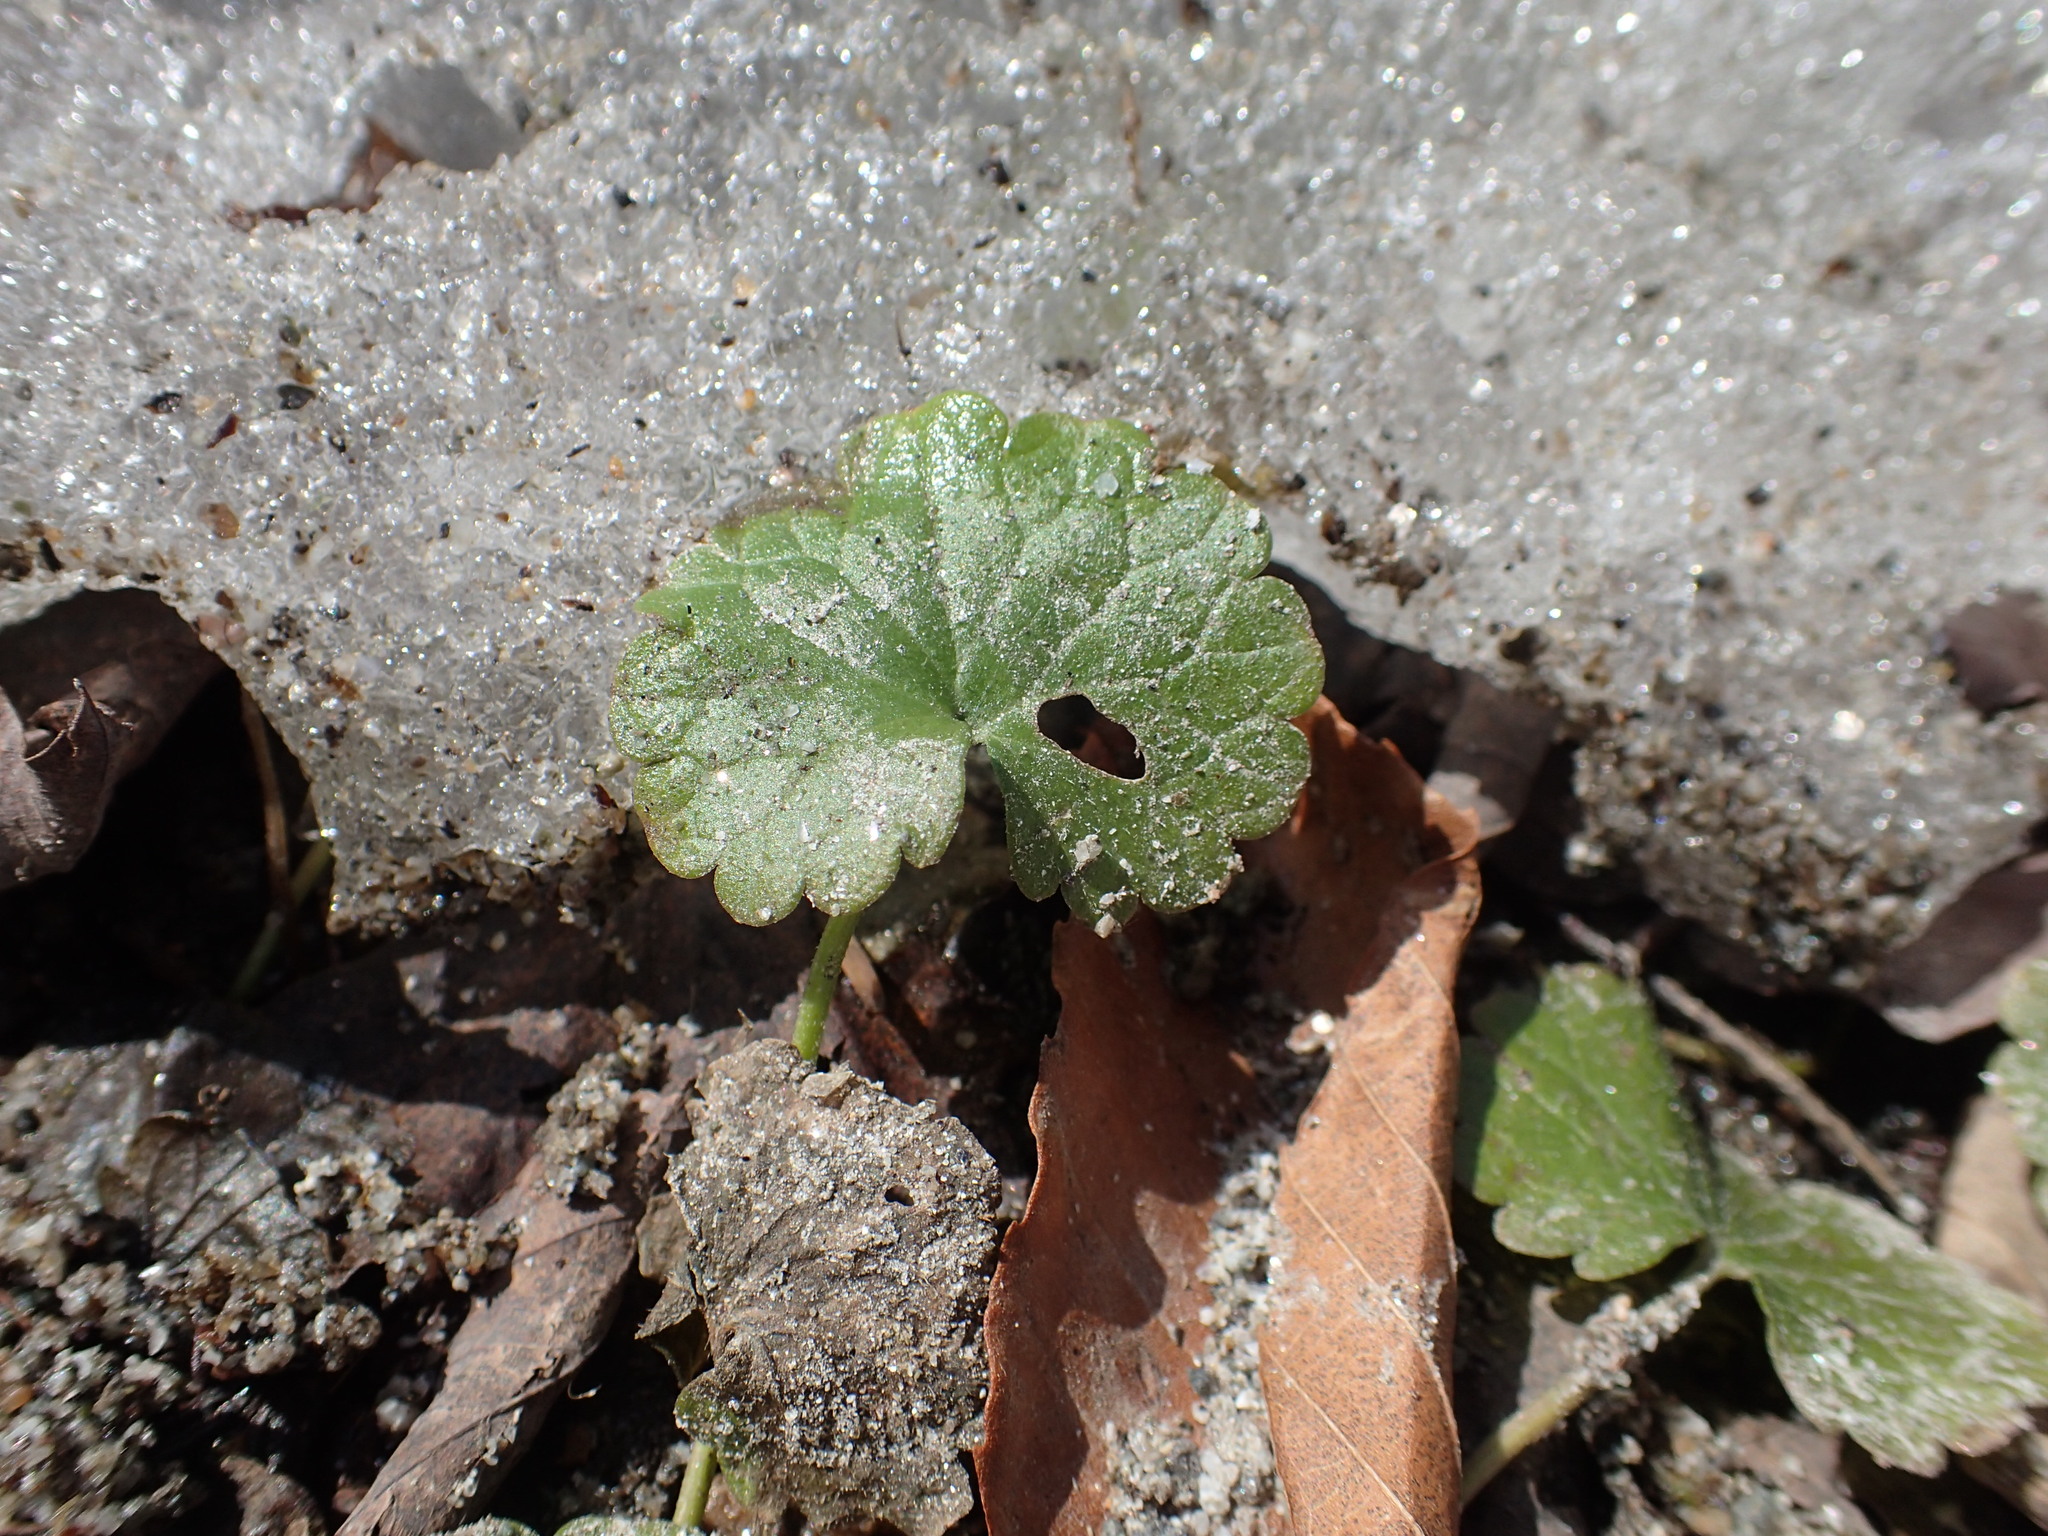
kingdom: Plantae
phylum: Tracheophyta
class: Magnoliopsida
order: Lamiales
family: Lamiaceae
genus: Glechoma
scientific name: Glechoma hederacea
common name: Ground ivy
